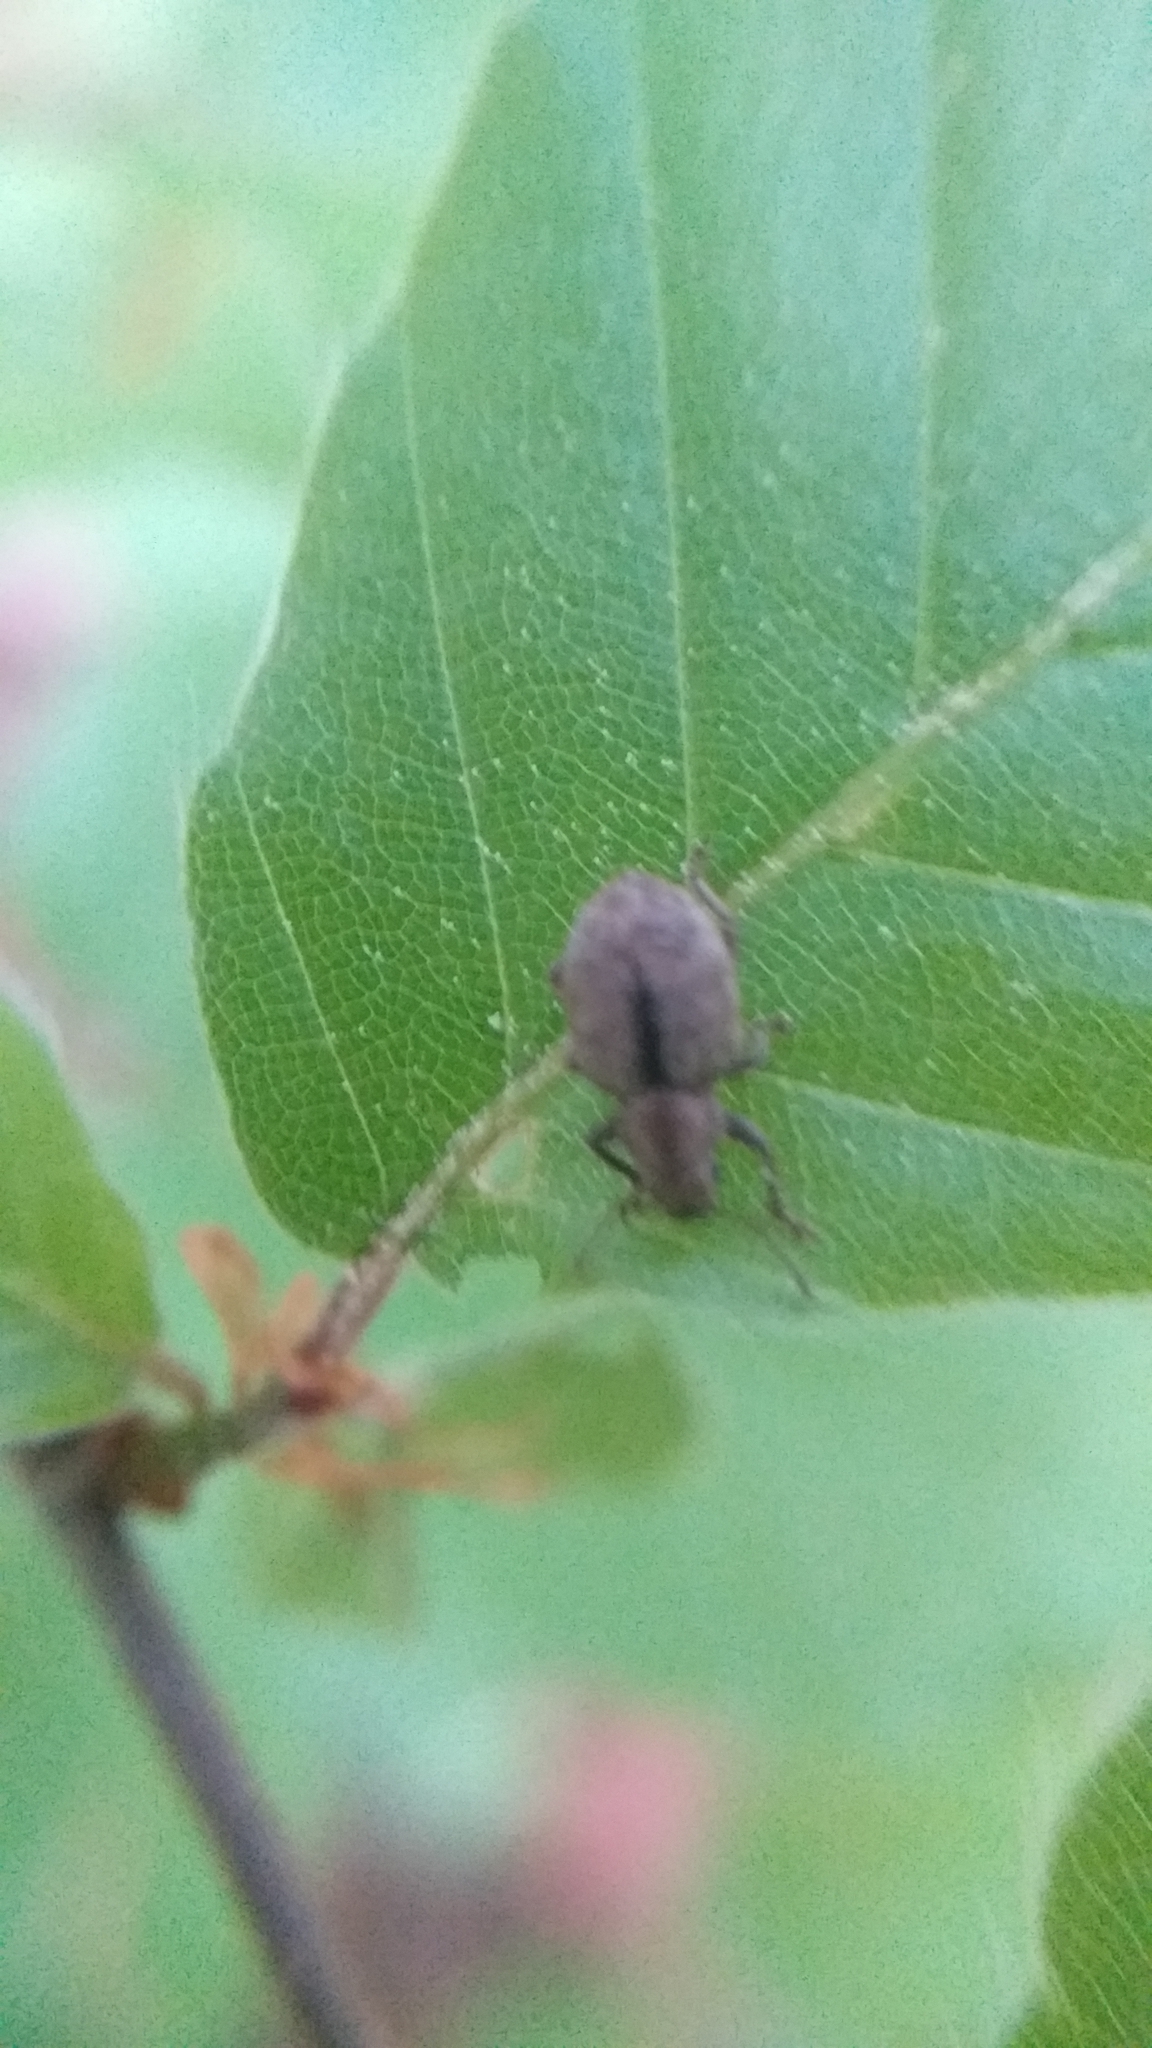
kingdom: Animalia
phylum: Arthropoda
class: Insecta
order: Coleoptera
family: Curculionidae
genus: Strophosoma
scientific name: Strophosoma melanogrammum
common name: Weevil
